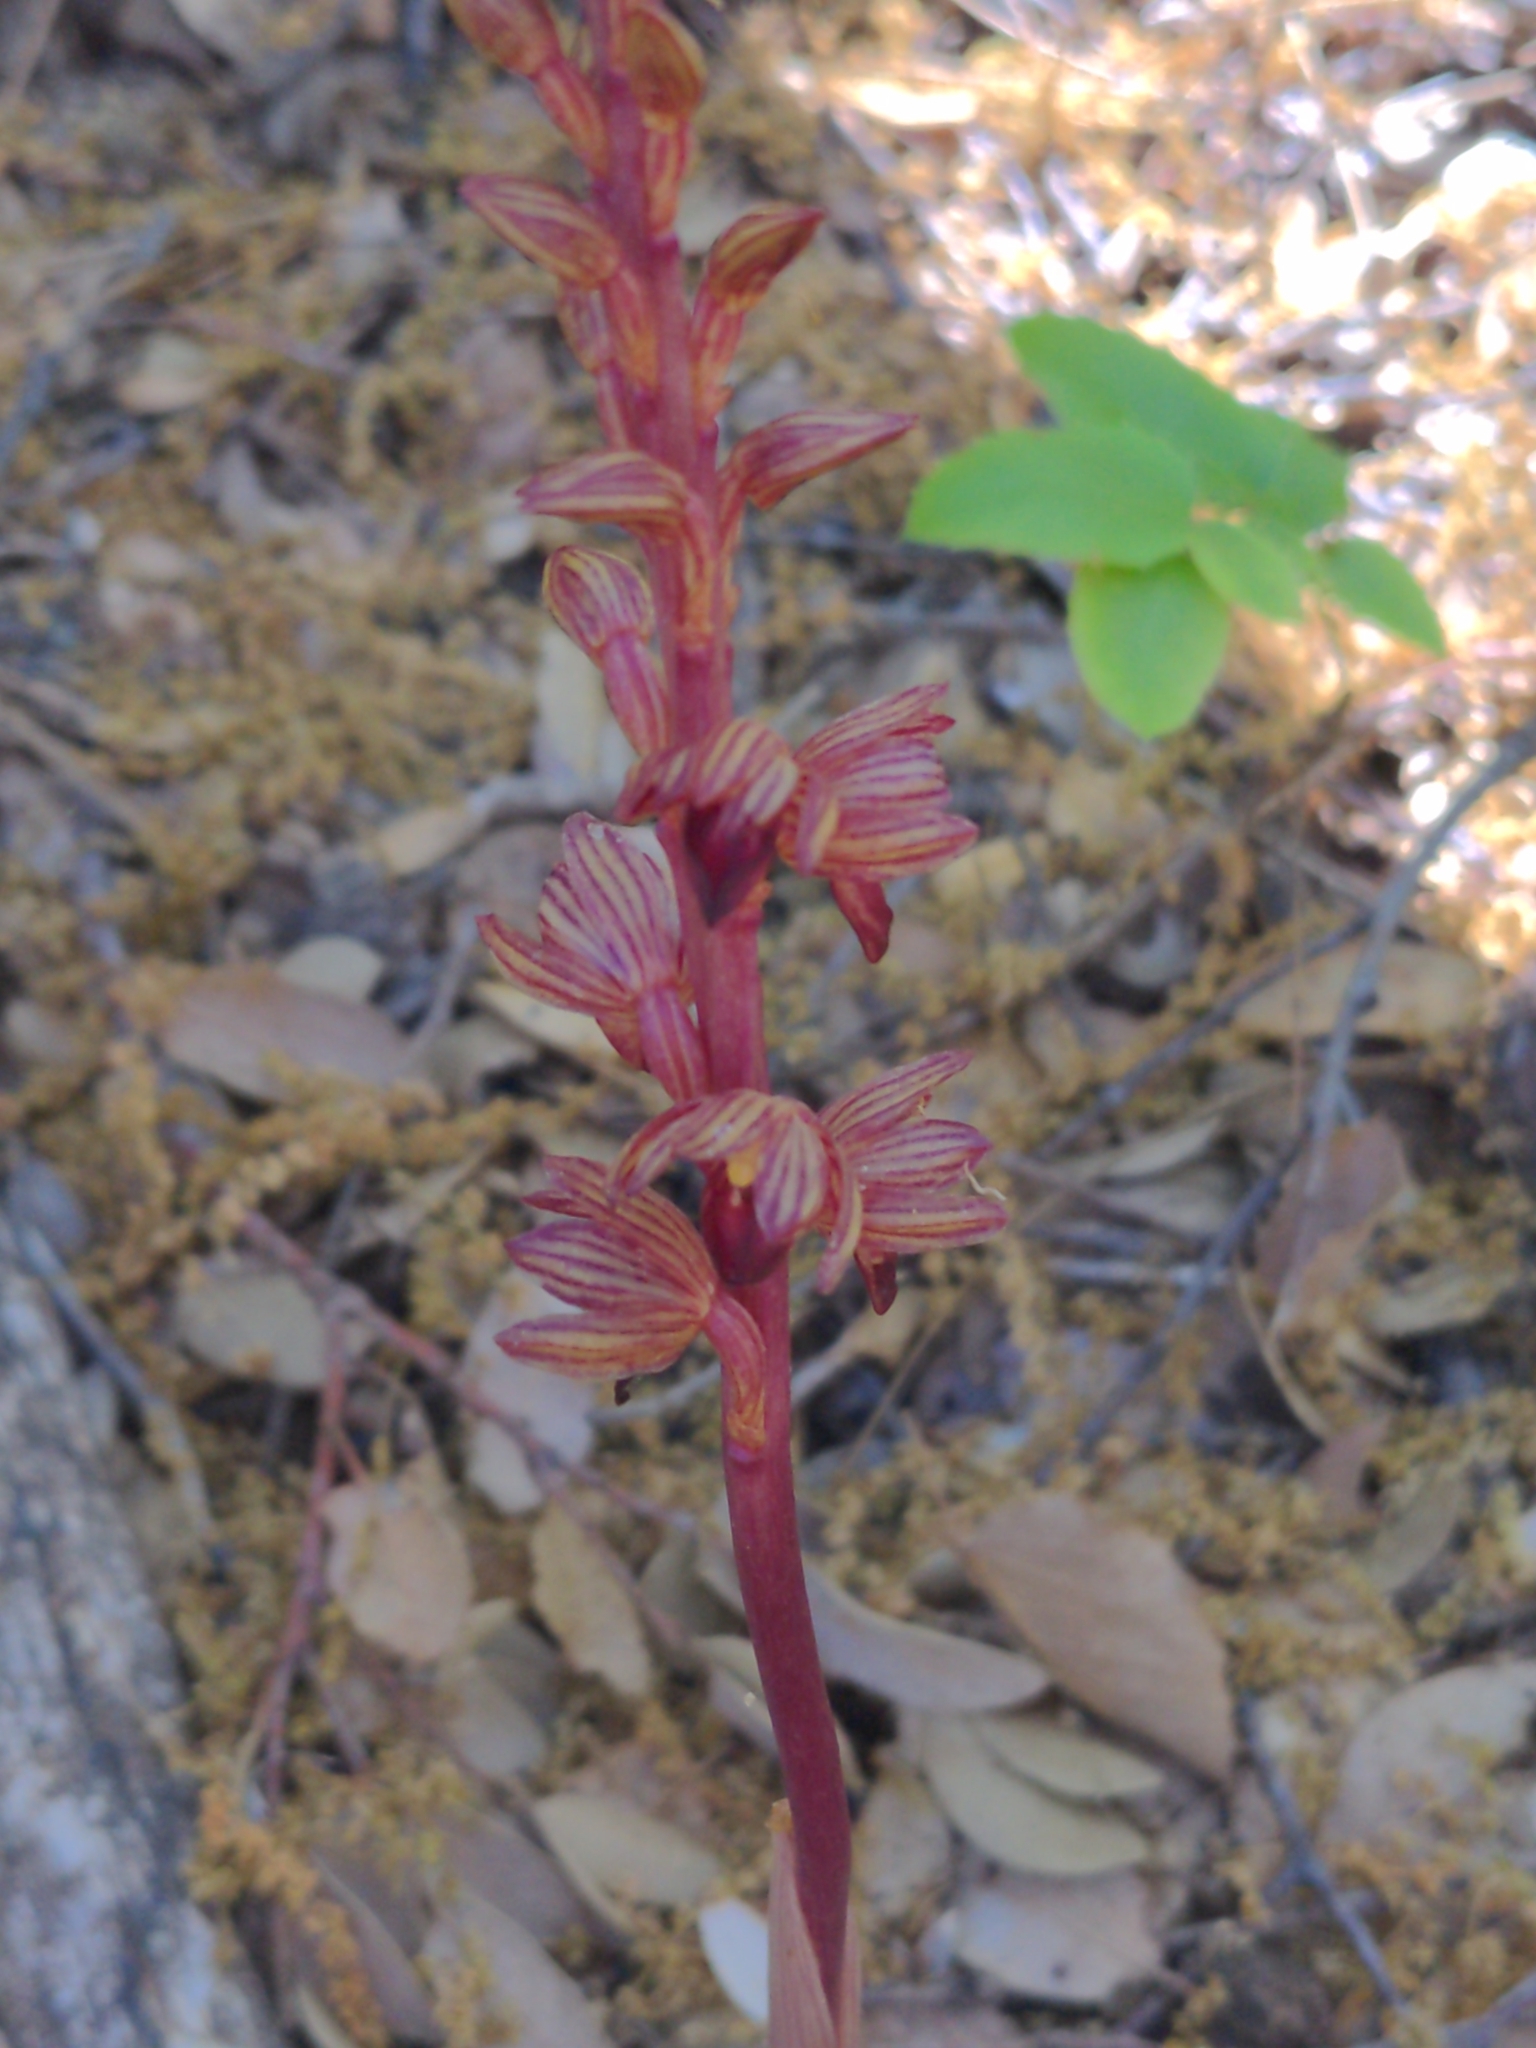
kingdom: Plantae
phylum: Tracheophyta
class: Liliopsida
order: Asparagales
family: Orchidaceae
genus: Corallorhiza
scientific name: Corallorhiza striata
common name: Hooded coralroot
